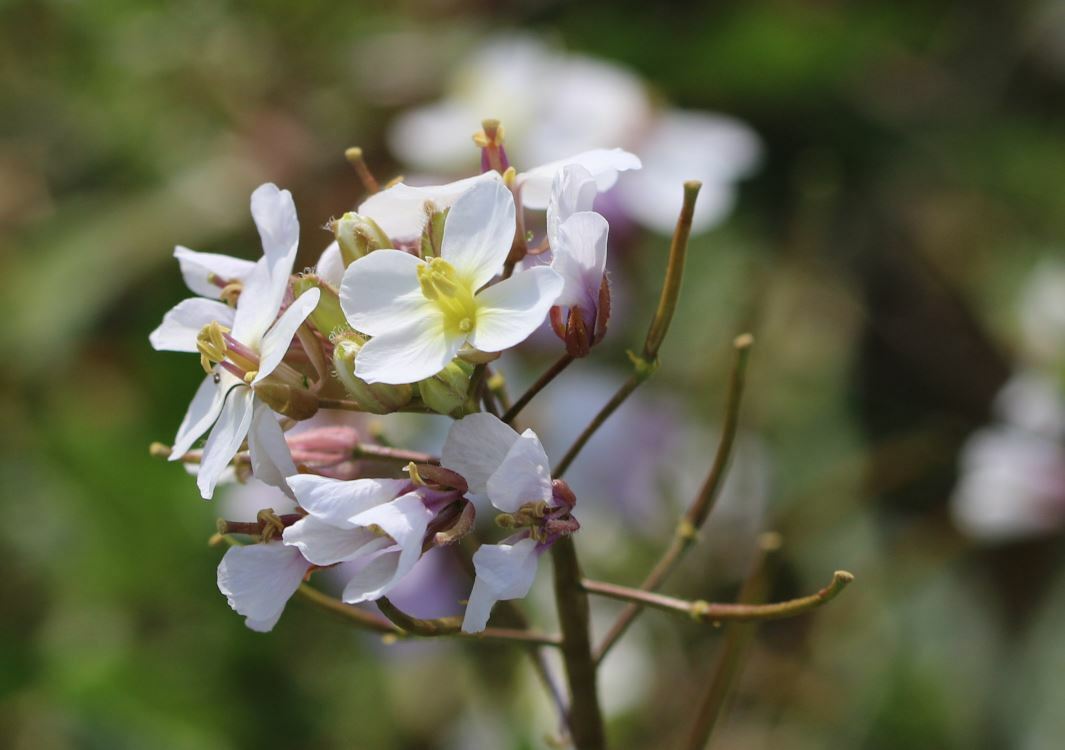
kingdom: Plantae
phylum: Tracheophyta
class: Magnoliopsida
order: Brassicales
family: Brassicaceae
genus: Diplotaxis
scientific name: Diplotaxis erucoides
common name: White rocket
